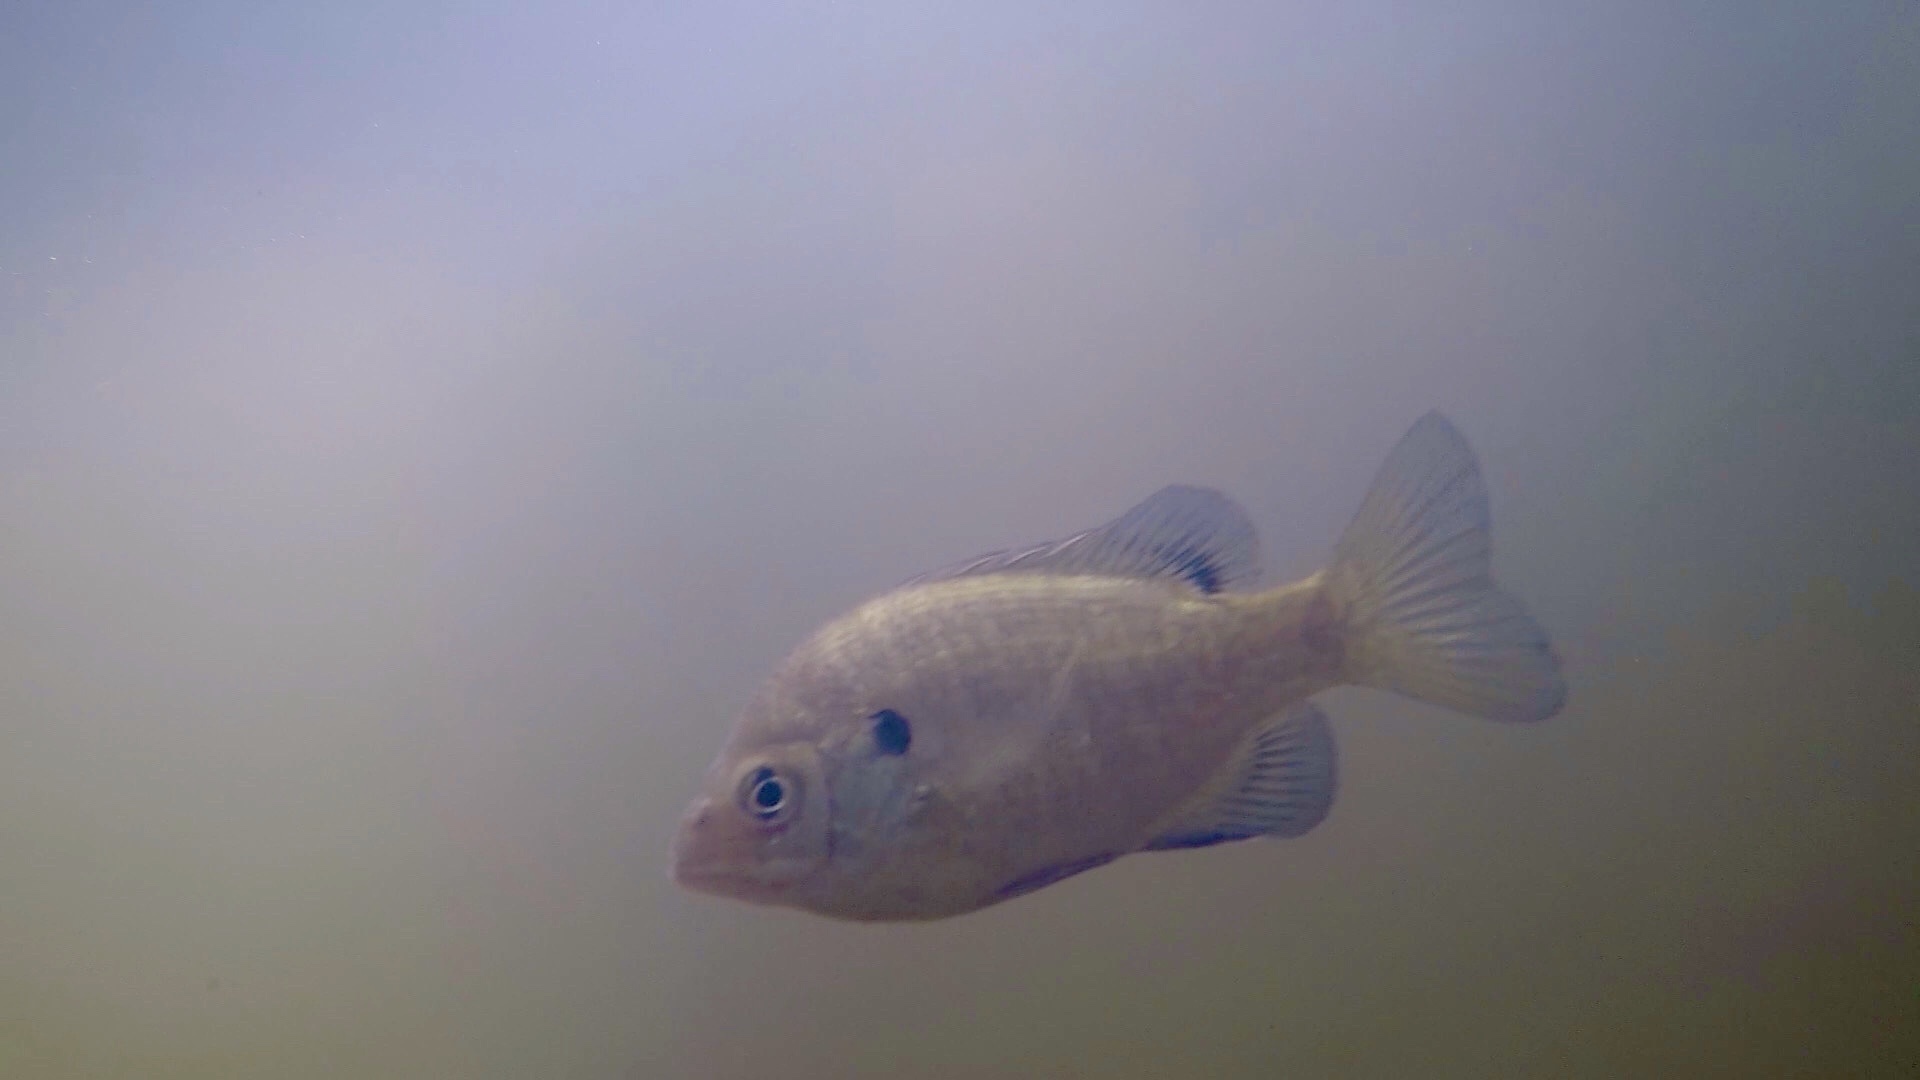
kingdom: Animalia
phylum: Chordata
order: Perciformes
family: Centrarchidae
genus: Lepomis
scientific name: Lepomis macrochirus
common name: Bluegill
